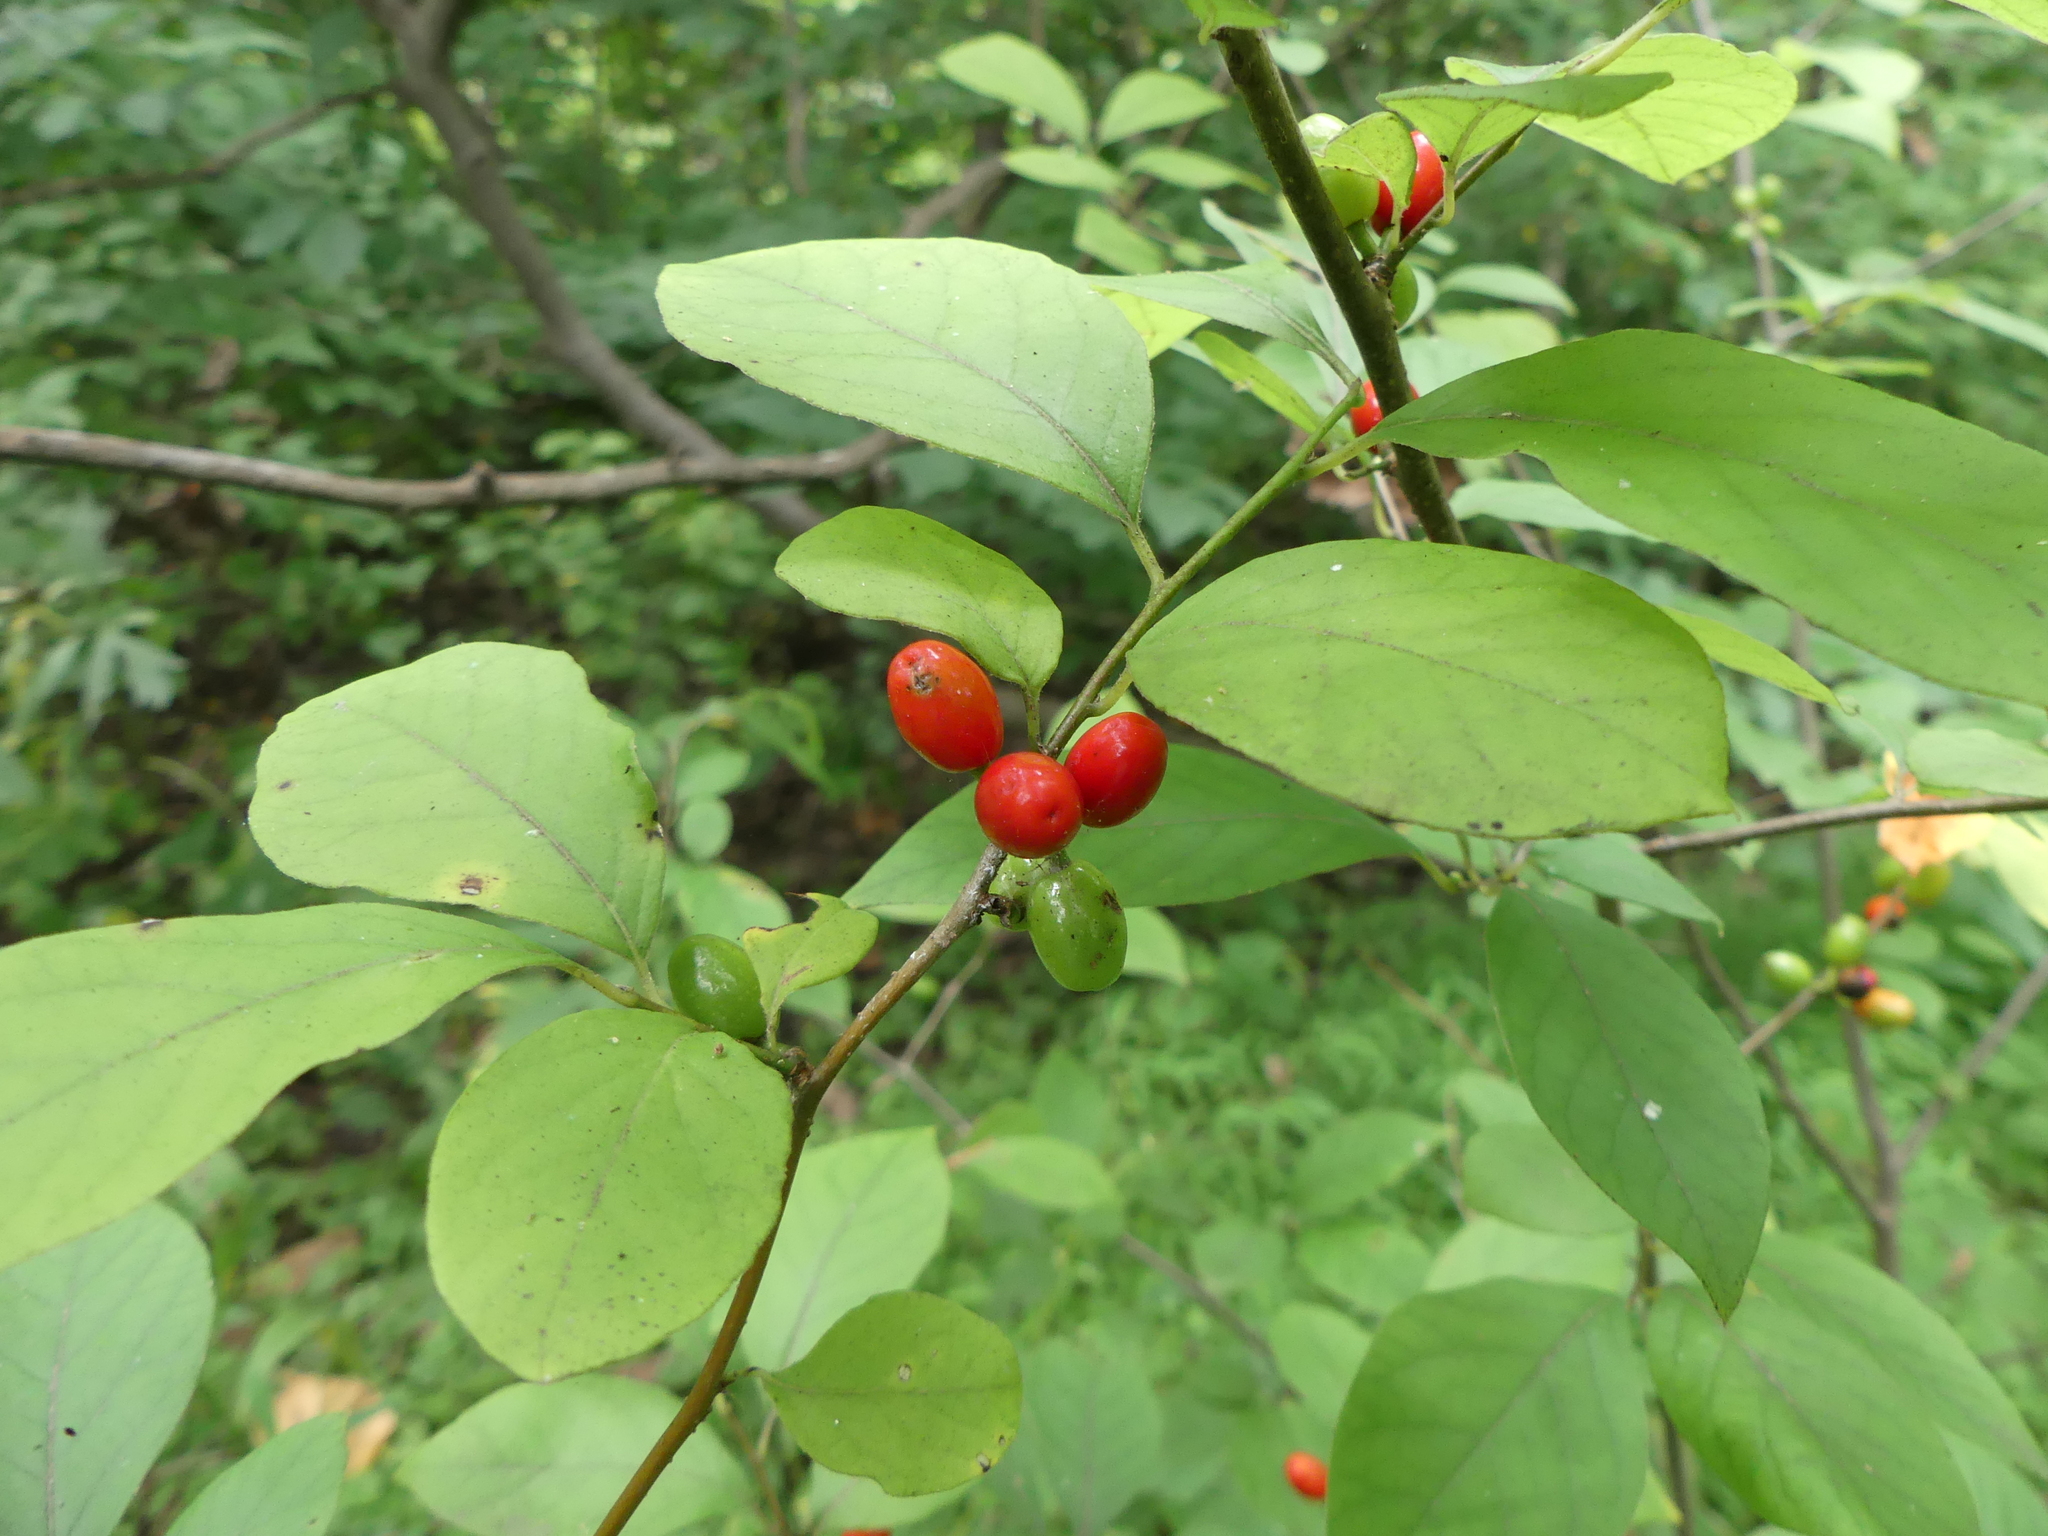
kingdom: Plantae
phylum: Tracheophyta
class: Magnoliopsida
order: Laurales
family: Lauraceae
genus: Lindera
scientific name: Lindera benzoin
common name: Spicebush
